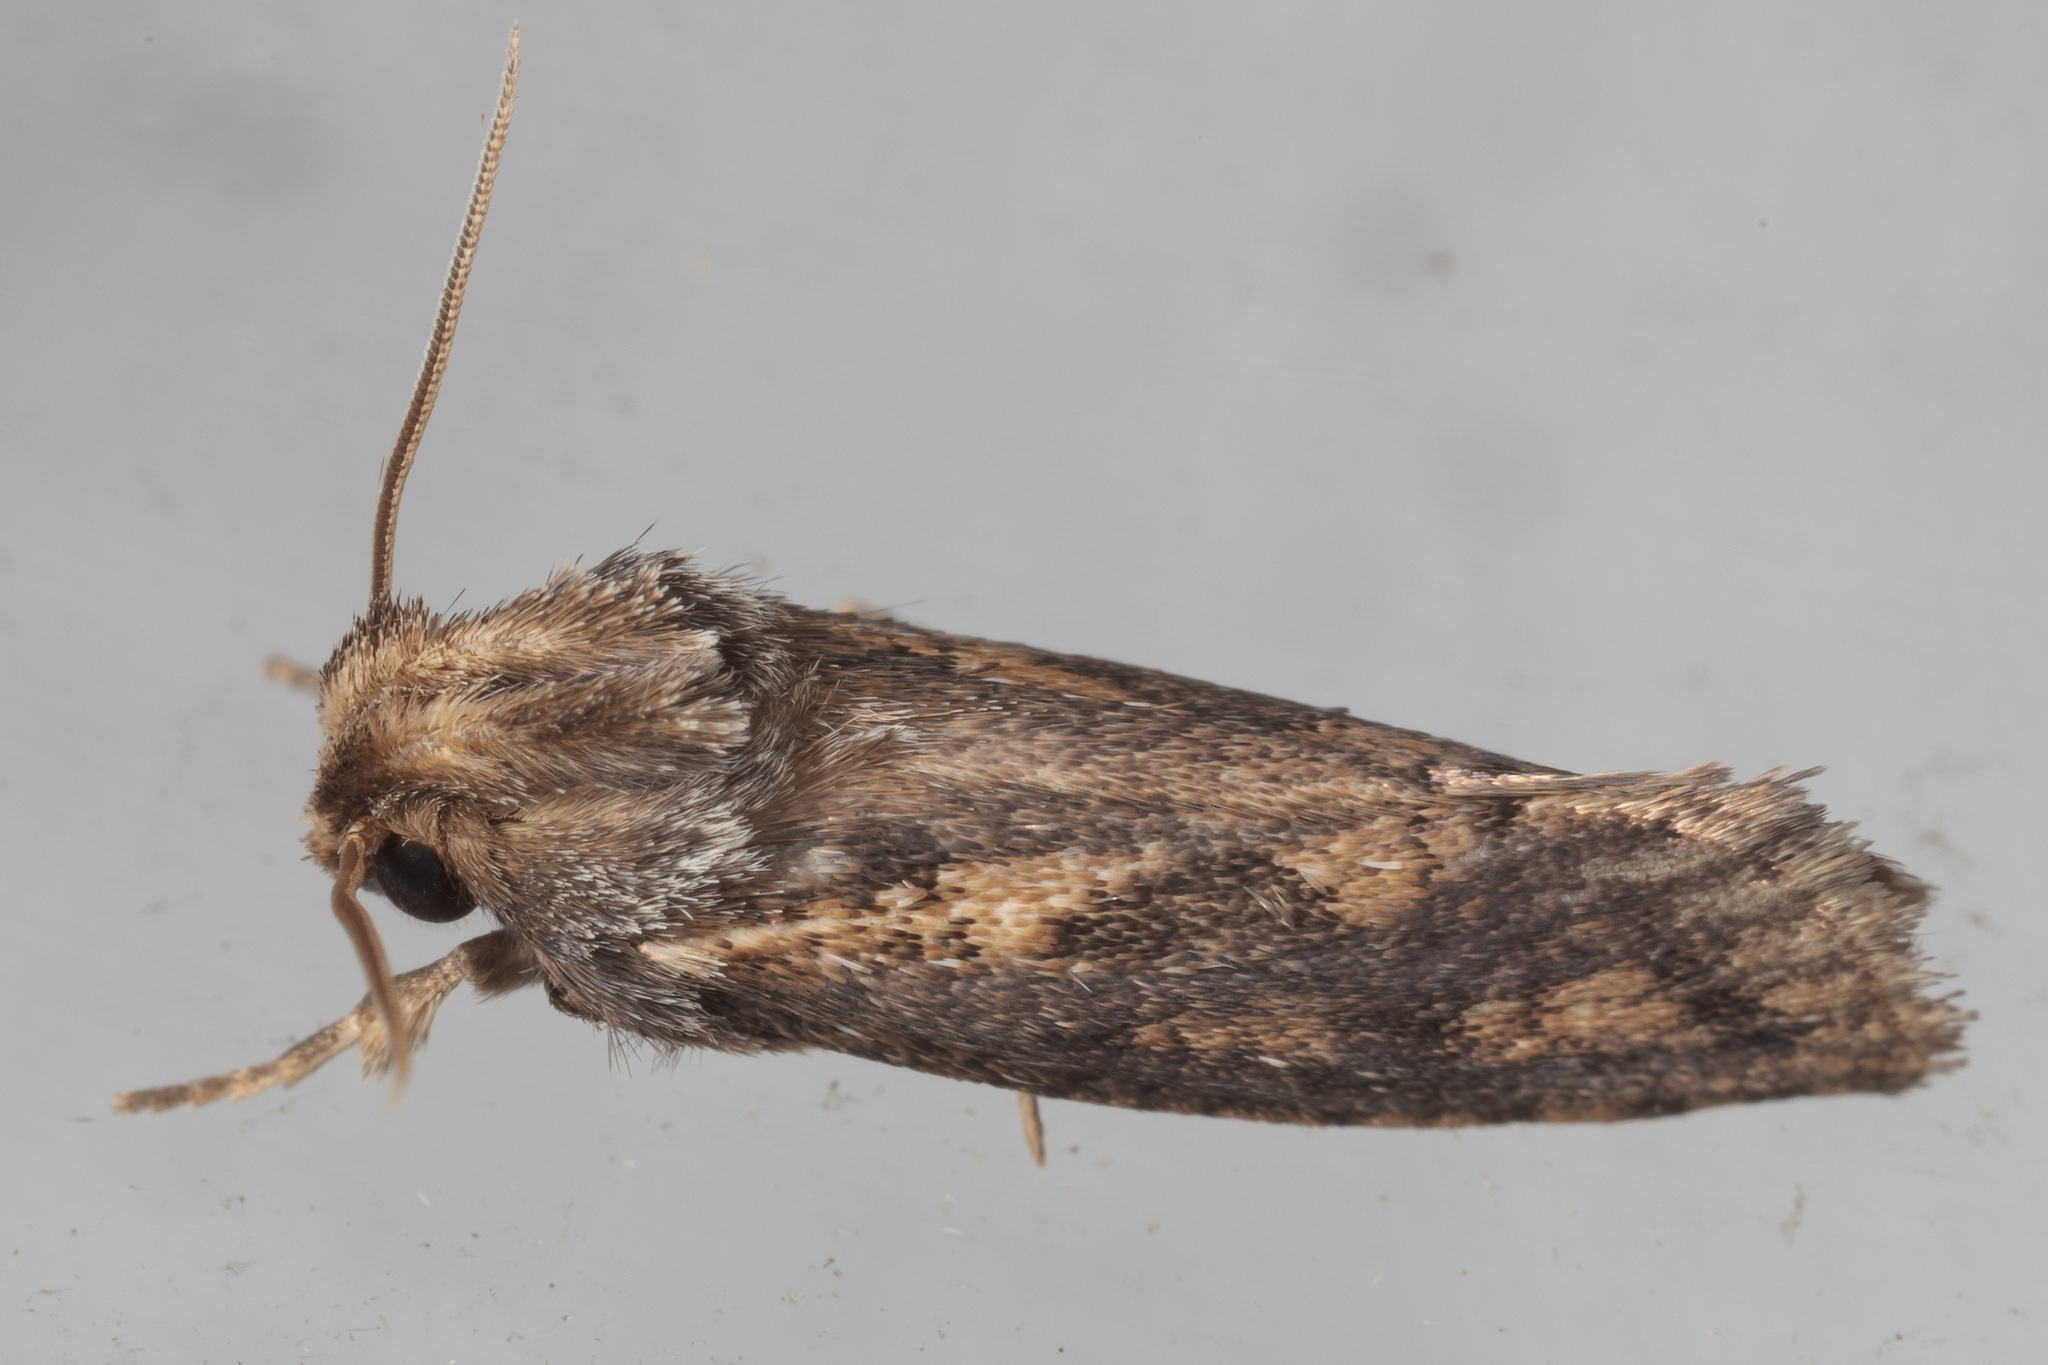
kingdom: Animalia
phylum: Arthropoda
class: Insecta
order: Lepidoptera
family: Tineidae
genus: Acrolophus
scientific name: Acrolophus popeanella
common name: Clemens' grass tubeworm moth
